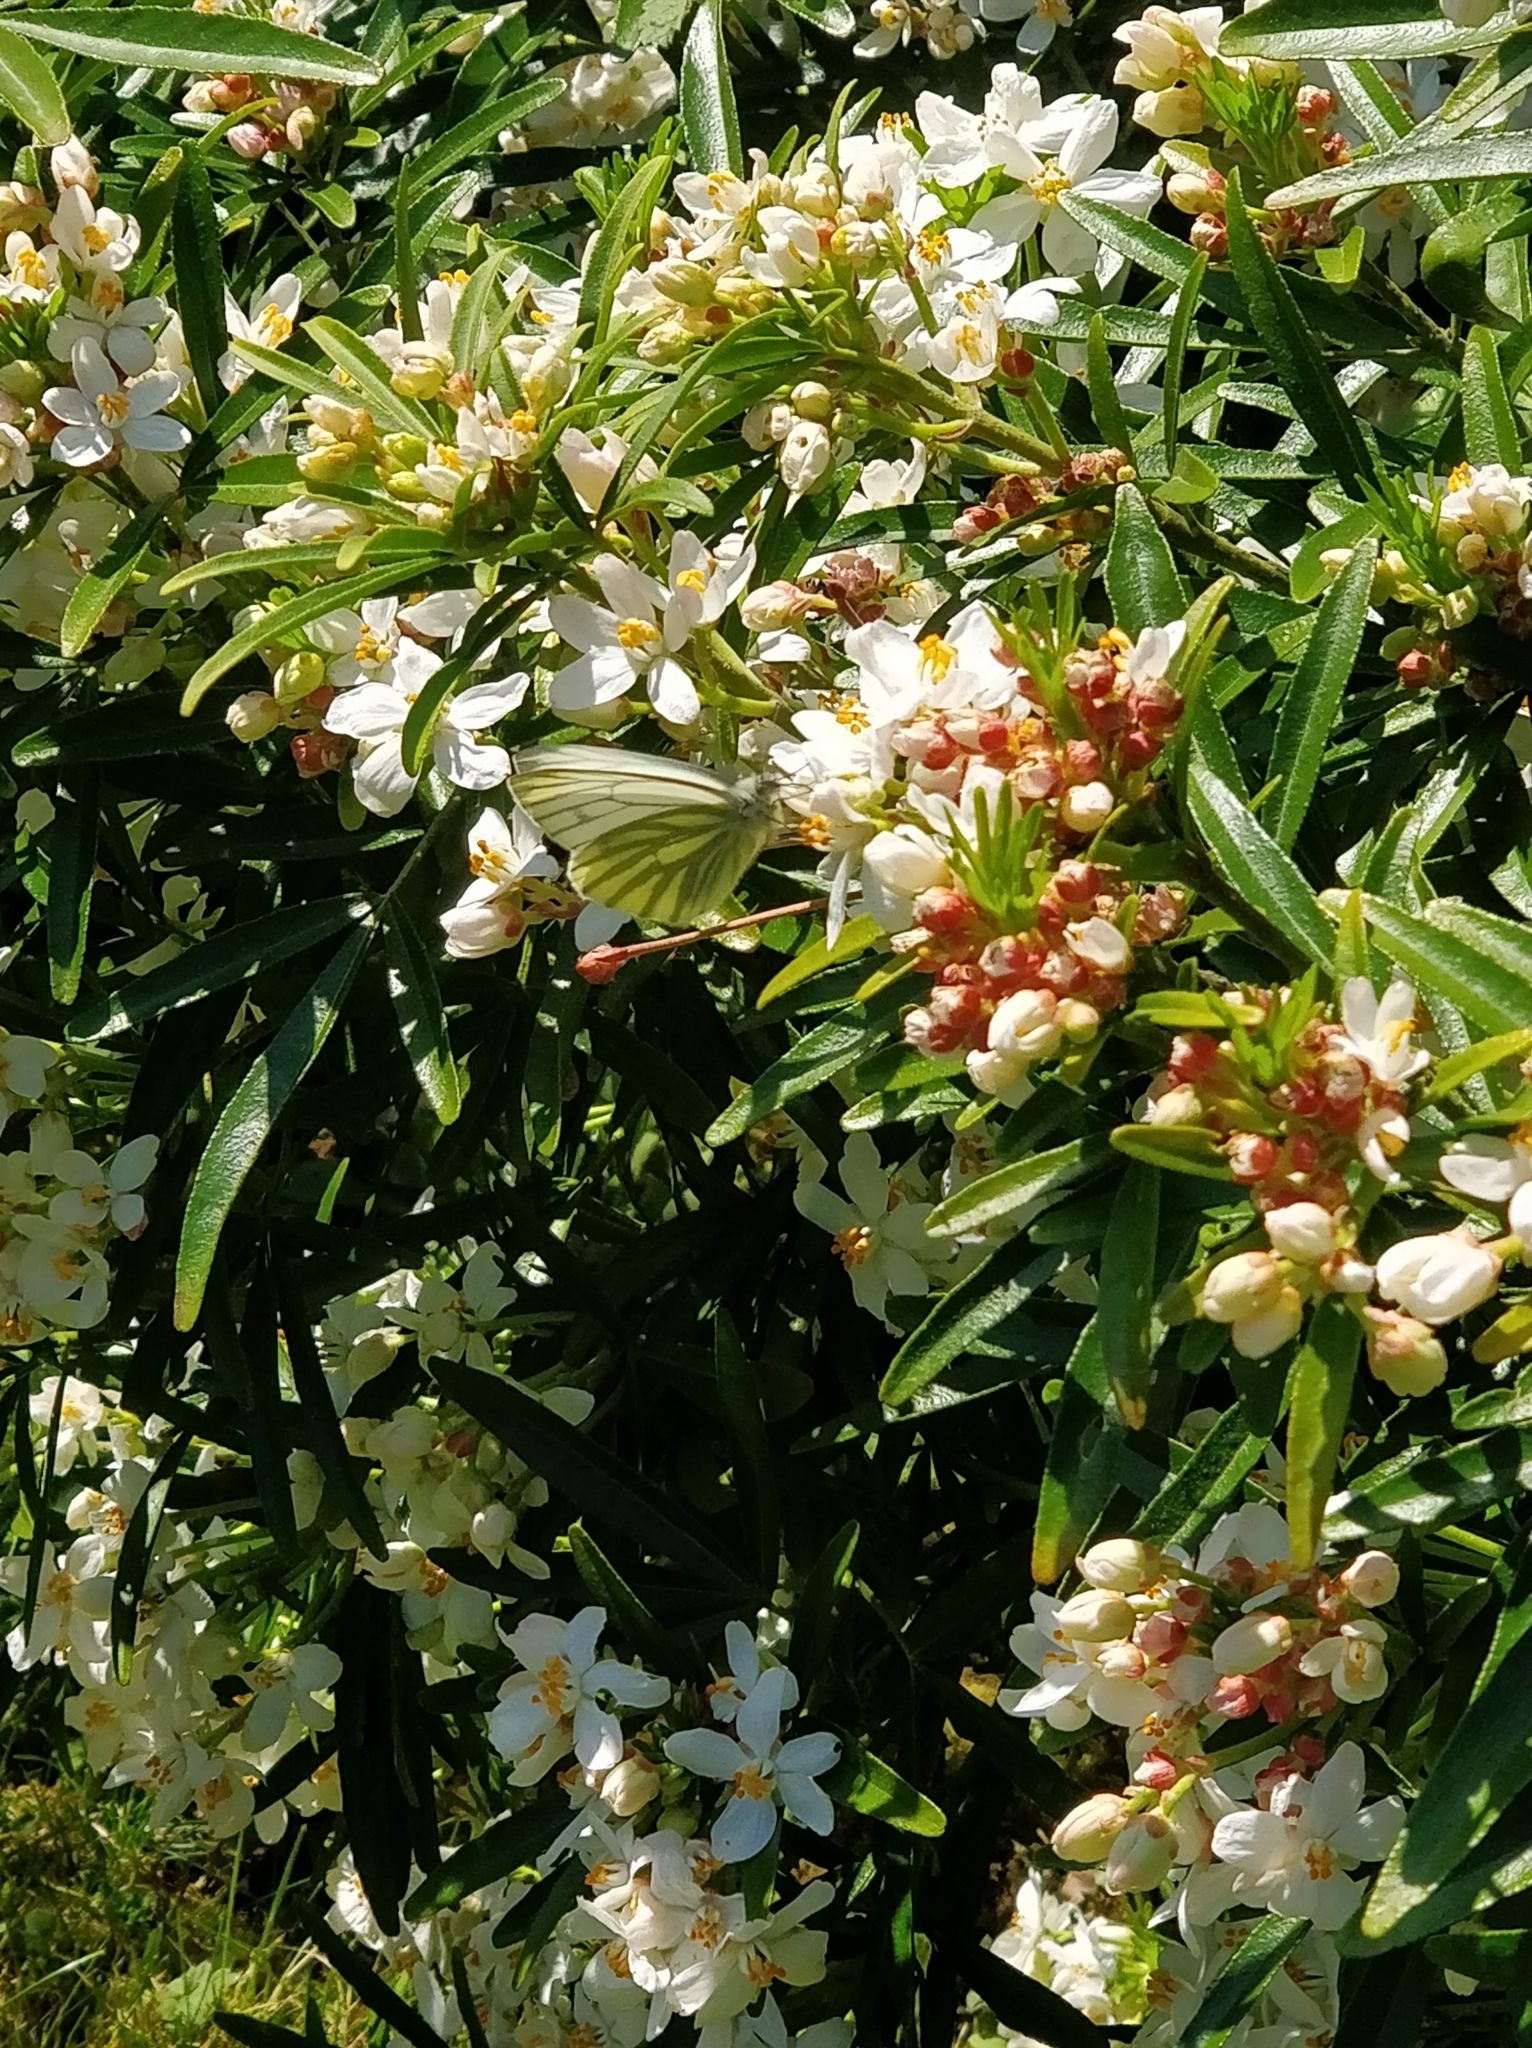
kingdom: Animalia
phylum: Arthropoda
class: Insecta
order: Lepidoptera
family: Pieridae
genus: Pieris
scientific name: Pieris napi
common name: Green-veined white
